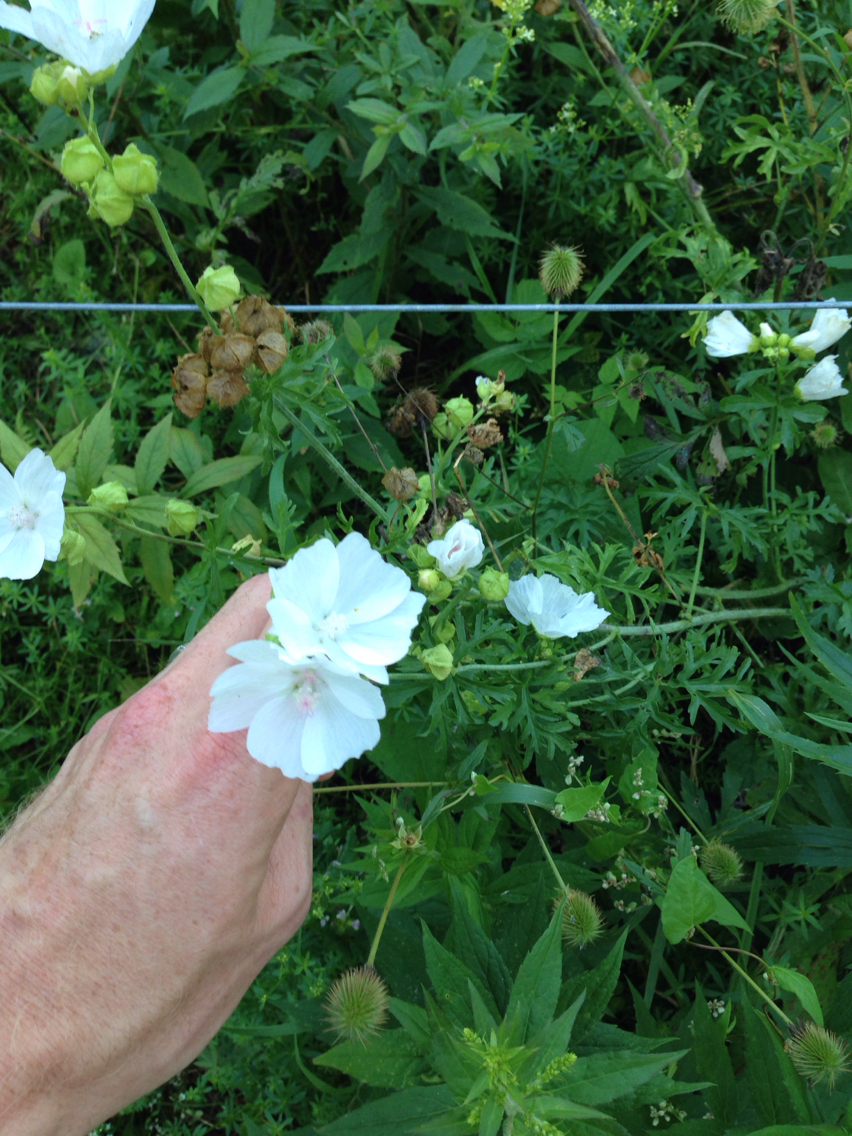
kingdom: Plantae
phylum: Tracheophyta
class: Magnoliopsida
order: Malvales
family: Malvaceae
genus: Malva
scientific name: Malva moschata
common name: Musk mallow
